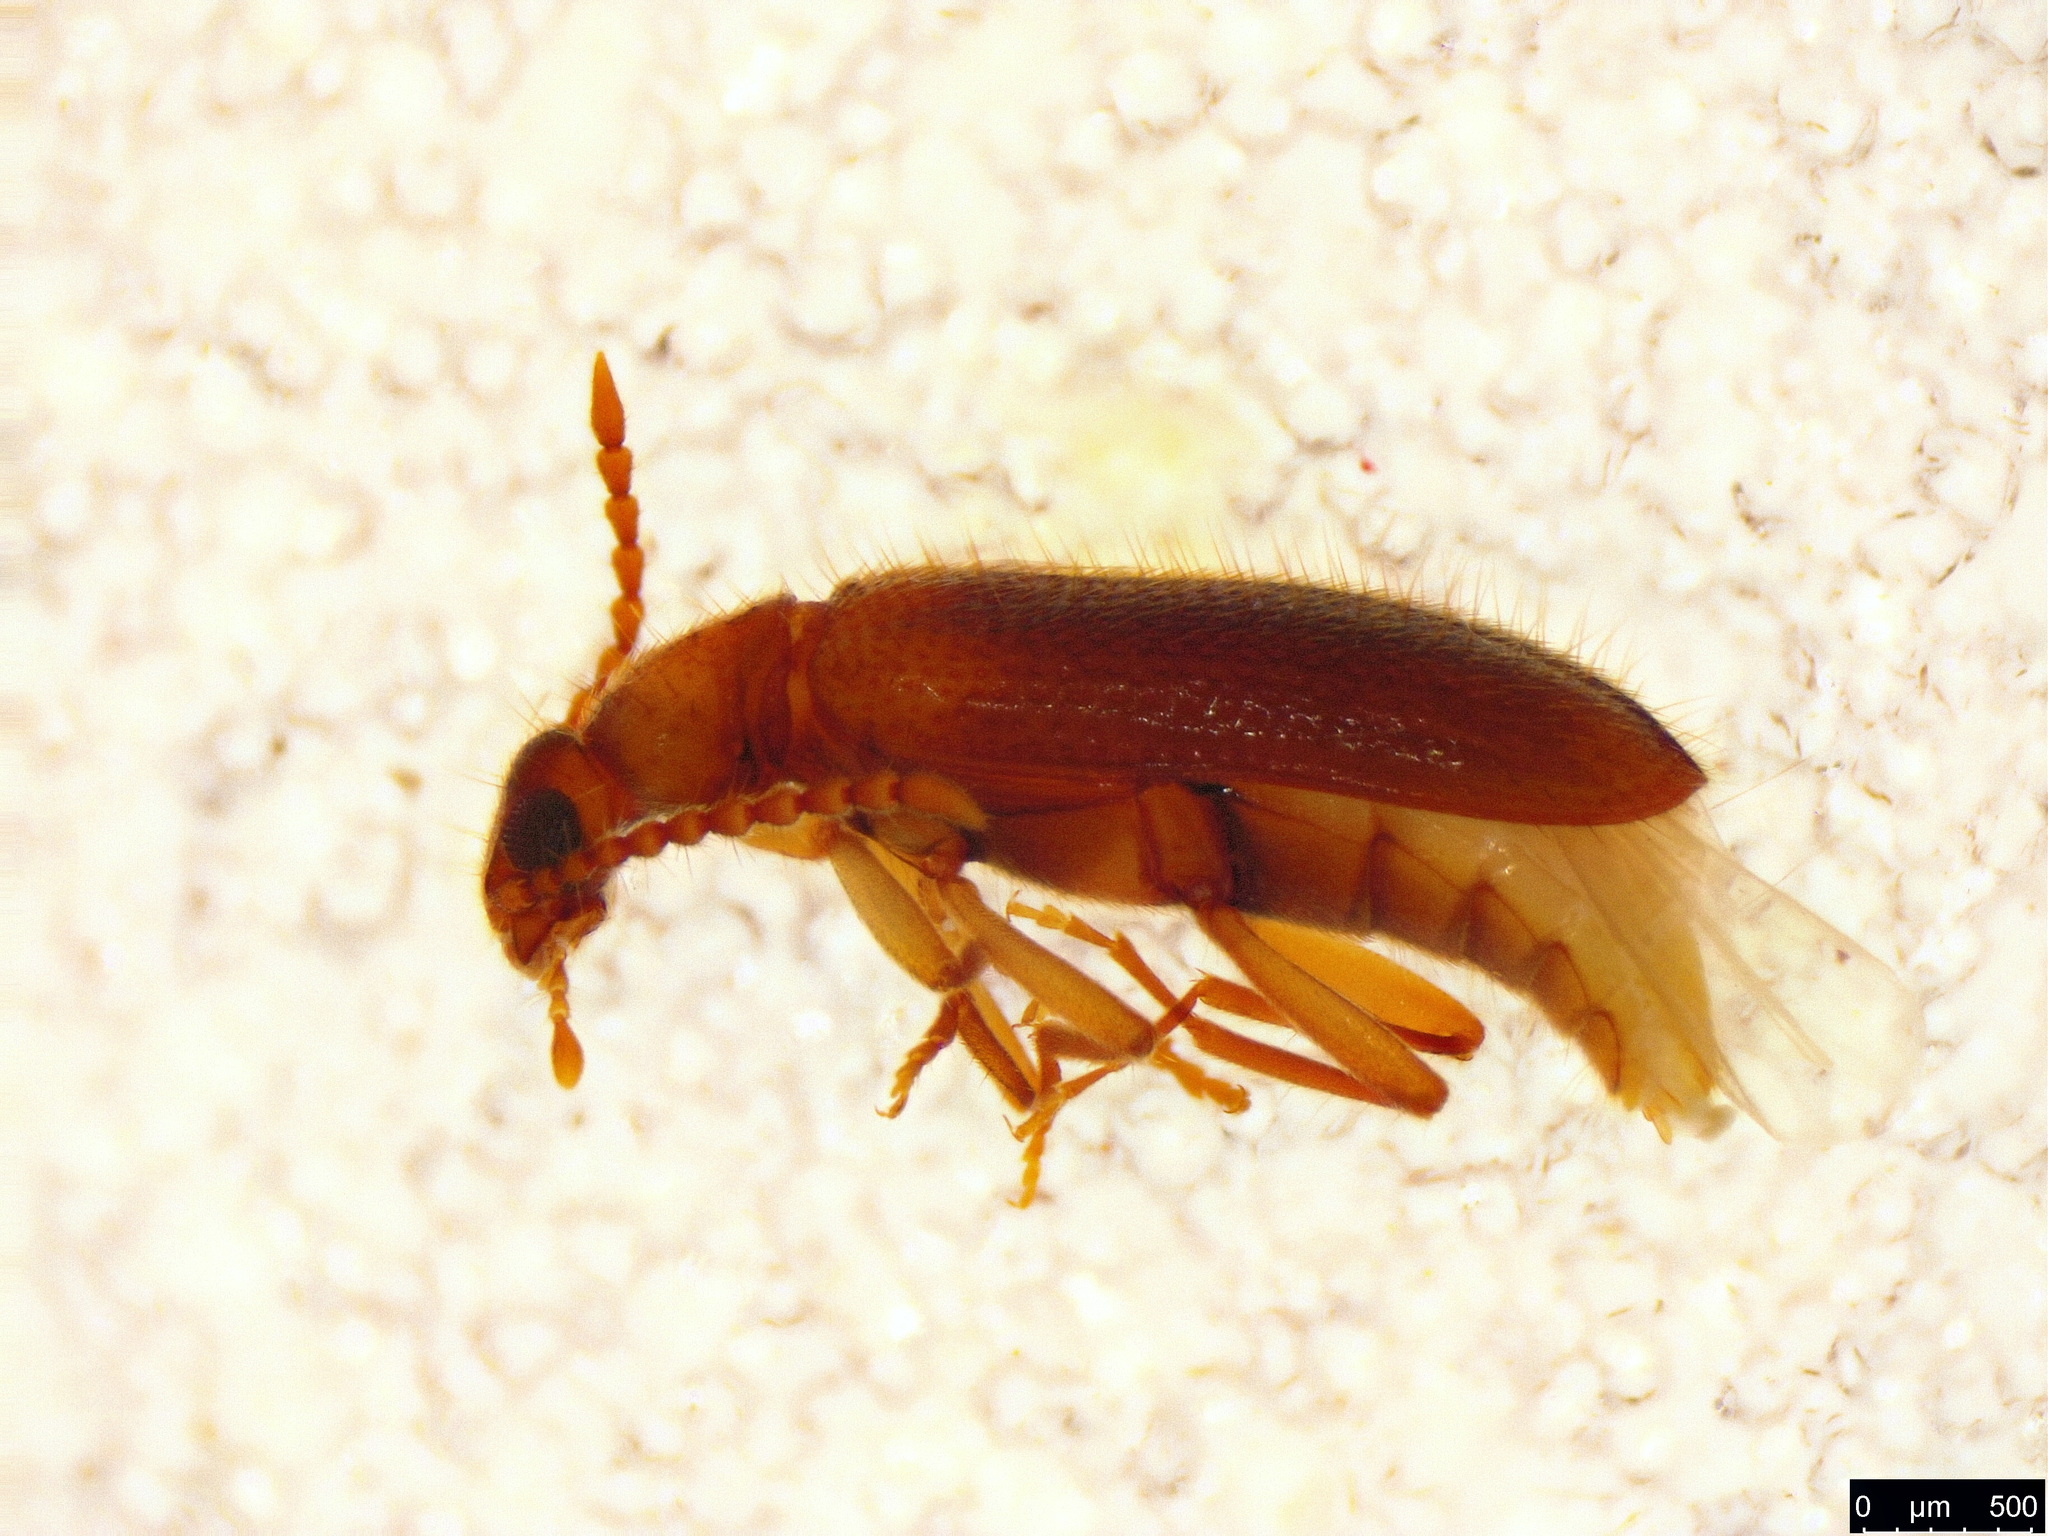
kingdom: Animalia
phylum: Arthropoda
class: Insecta
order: Coleoptera
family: Anthicidae
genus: Trichananca
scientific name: Trichananca
